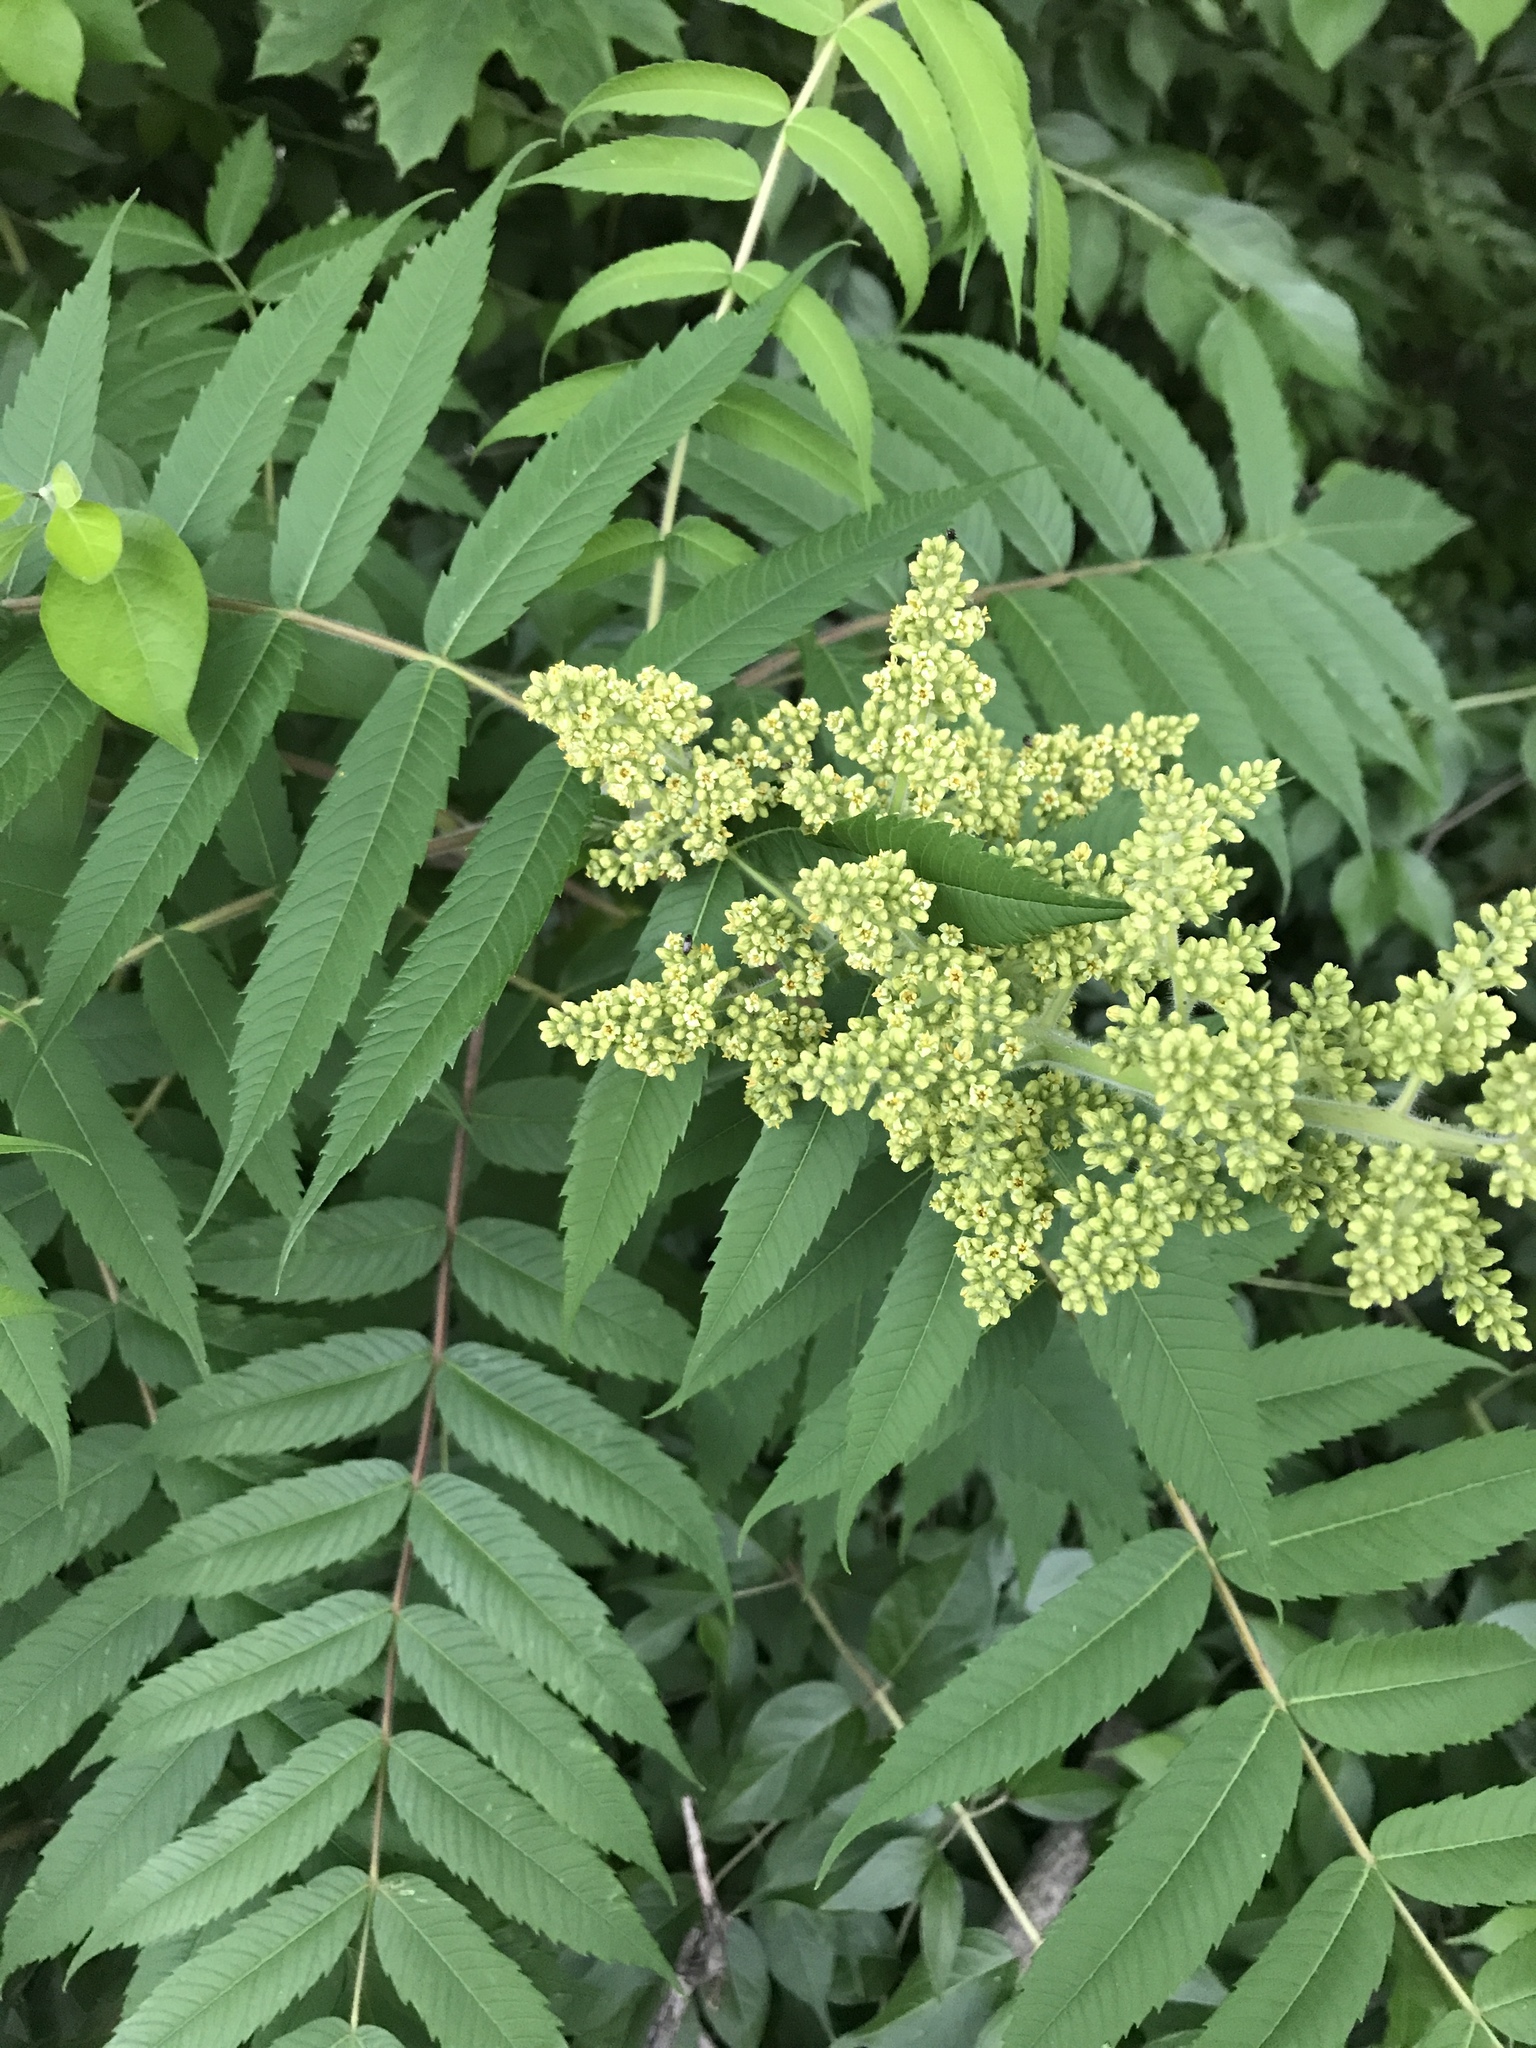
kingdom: Plantae
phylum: Tracheophyta
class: Magnoliopsida
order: Sapindales
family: Anacardiaceae
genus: Rhus
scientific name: Rhus typhina
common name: Staghorn sumac
